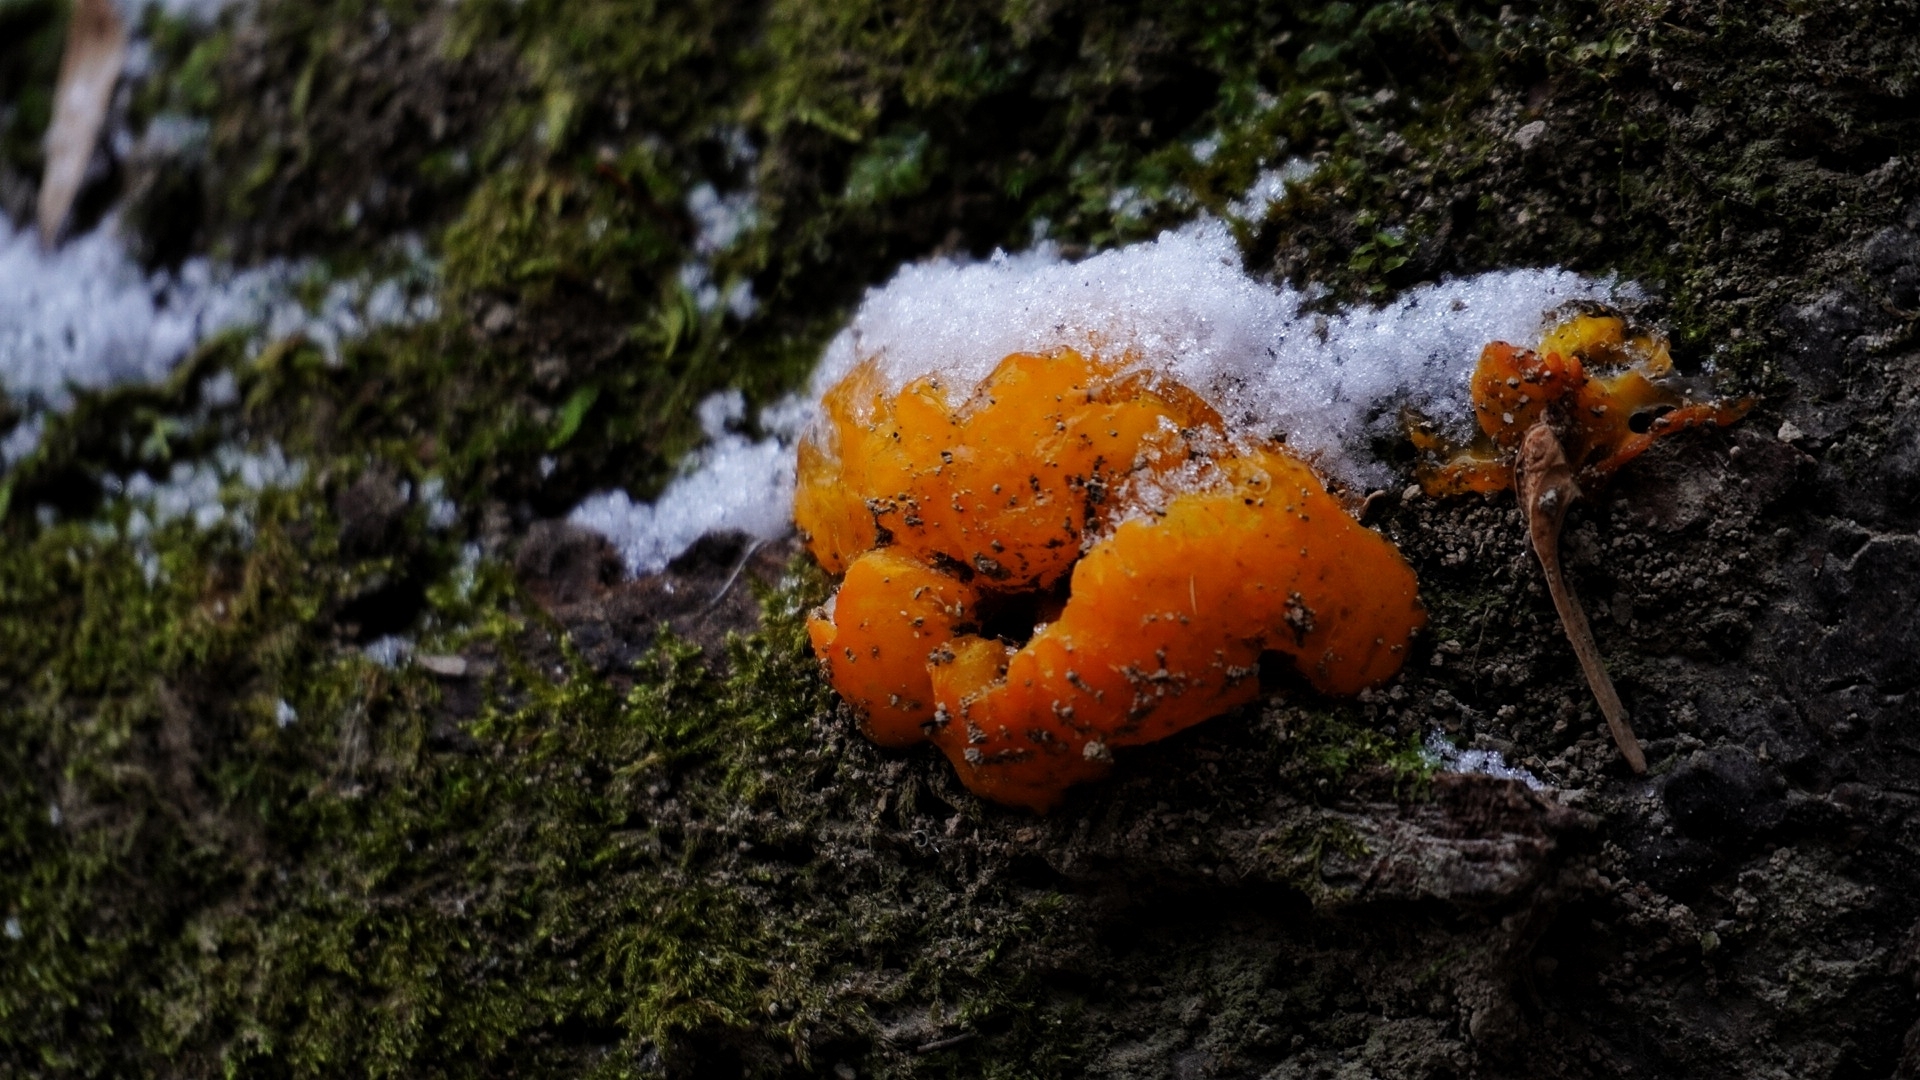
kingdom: Fungi
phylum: Basidiomycota
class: Dacrymycetes
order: Dacrymycetales
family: Dacrymycetaceae
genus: Dacrymyces
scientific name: Dacrymyces chrysospermus
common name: Orange jelly spot
